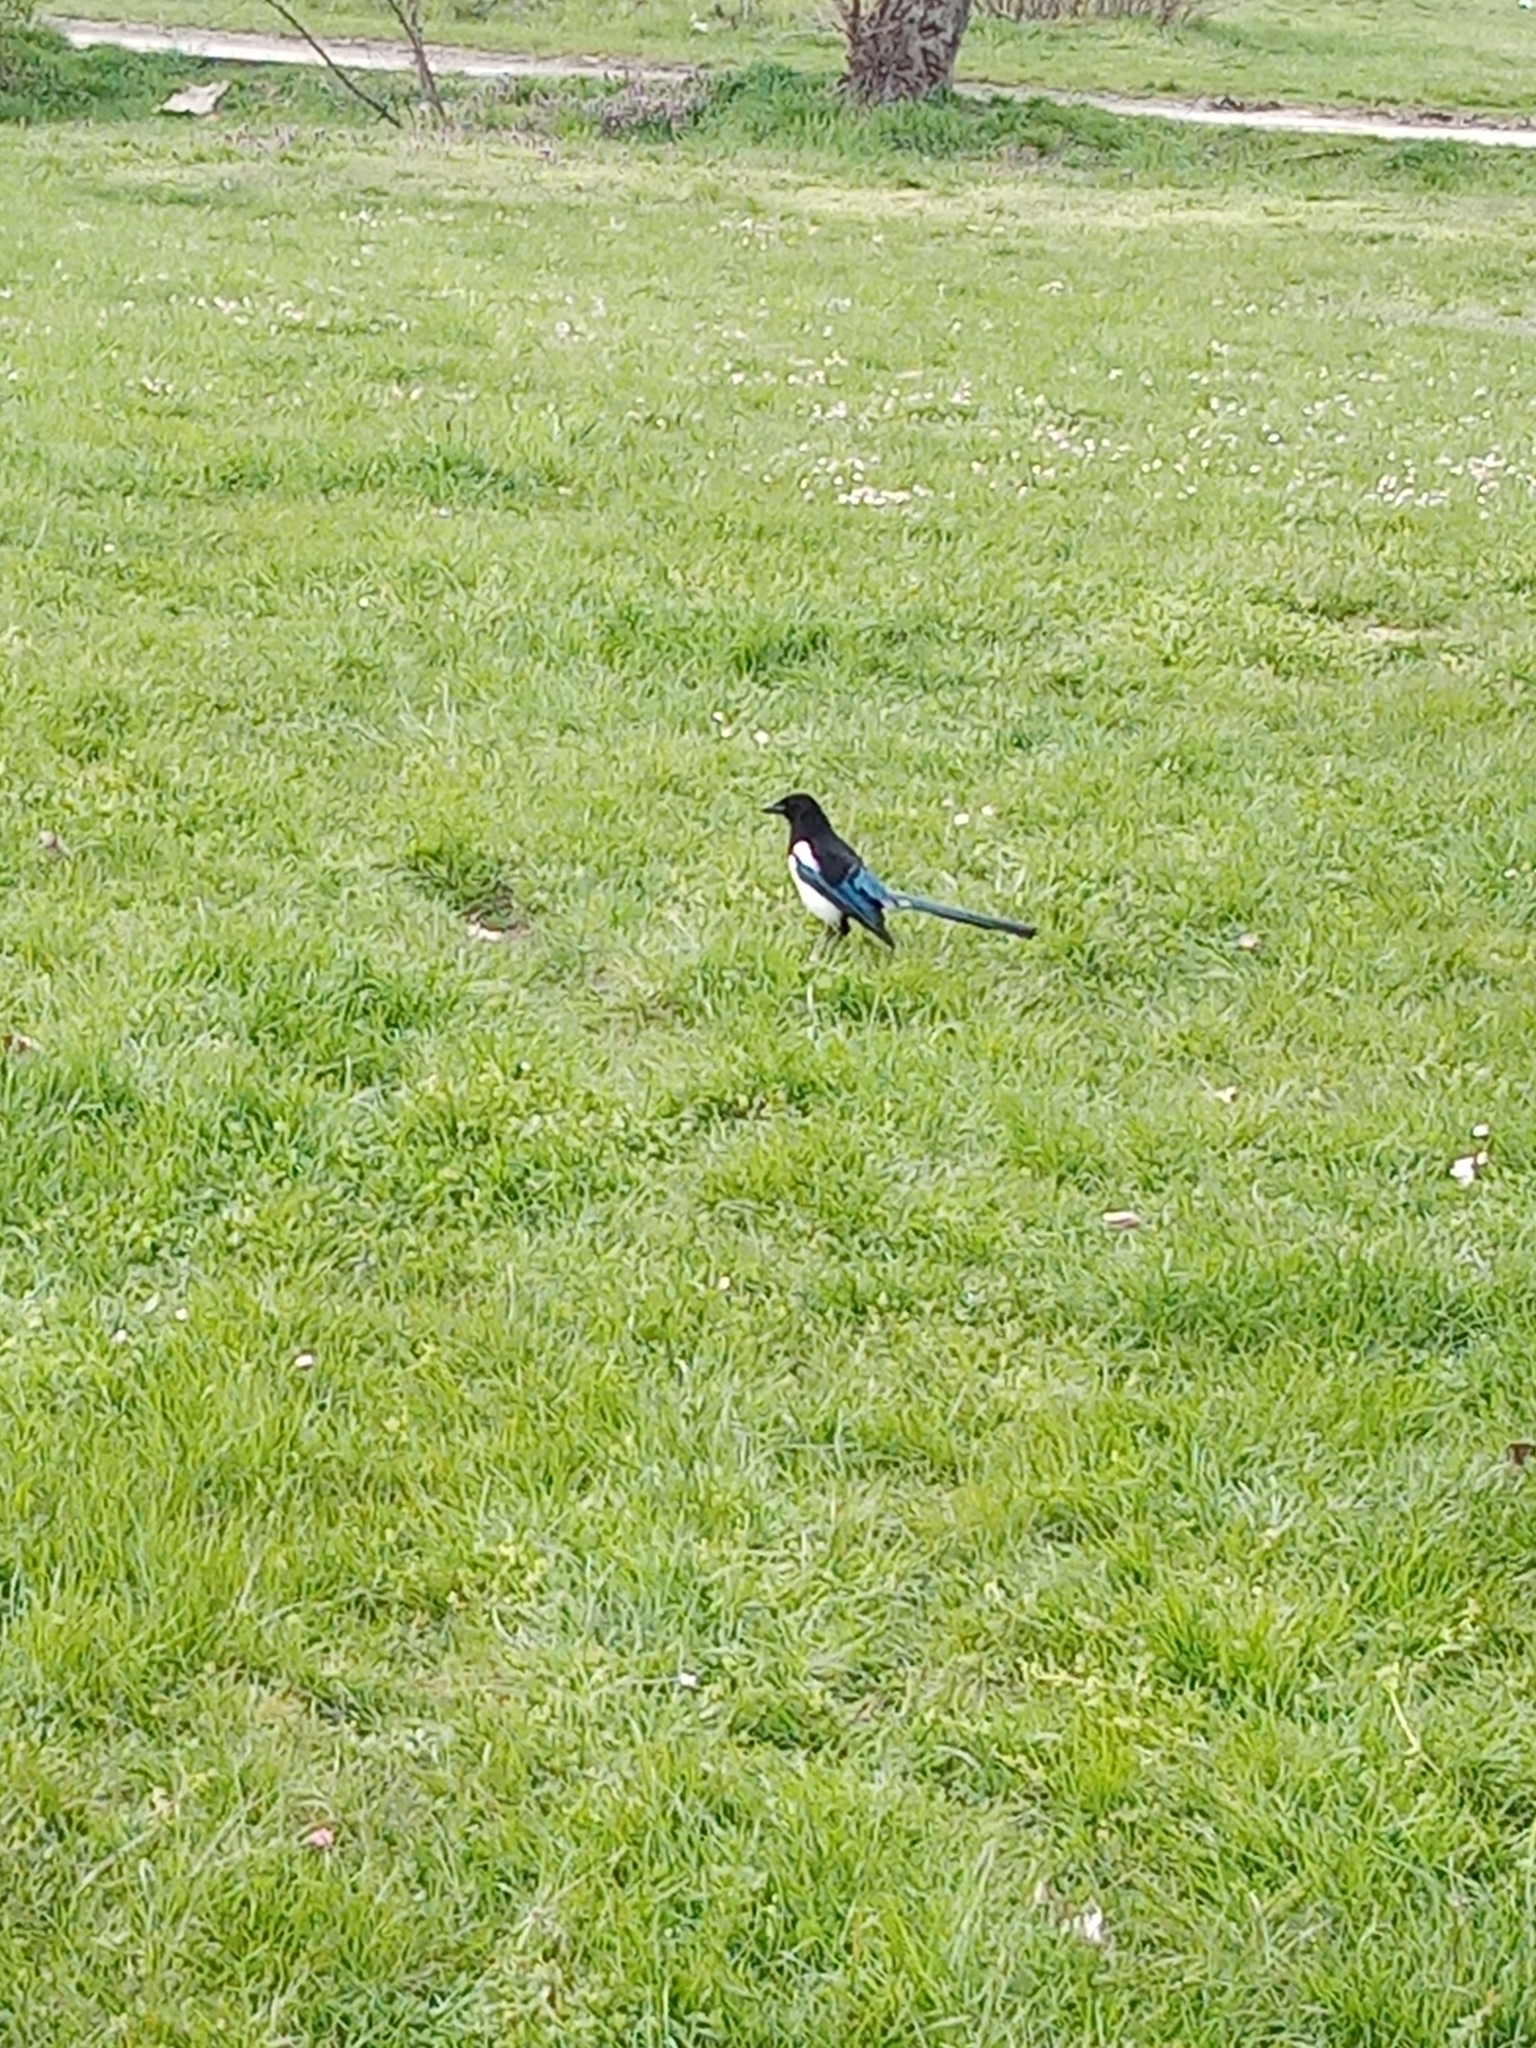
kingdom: Animalia
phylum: Chordata
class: Aves
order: Passeriformes
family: Corvidae
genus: Pica
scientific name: Pica pica
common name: Eurasian magpie
